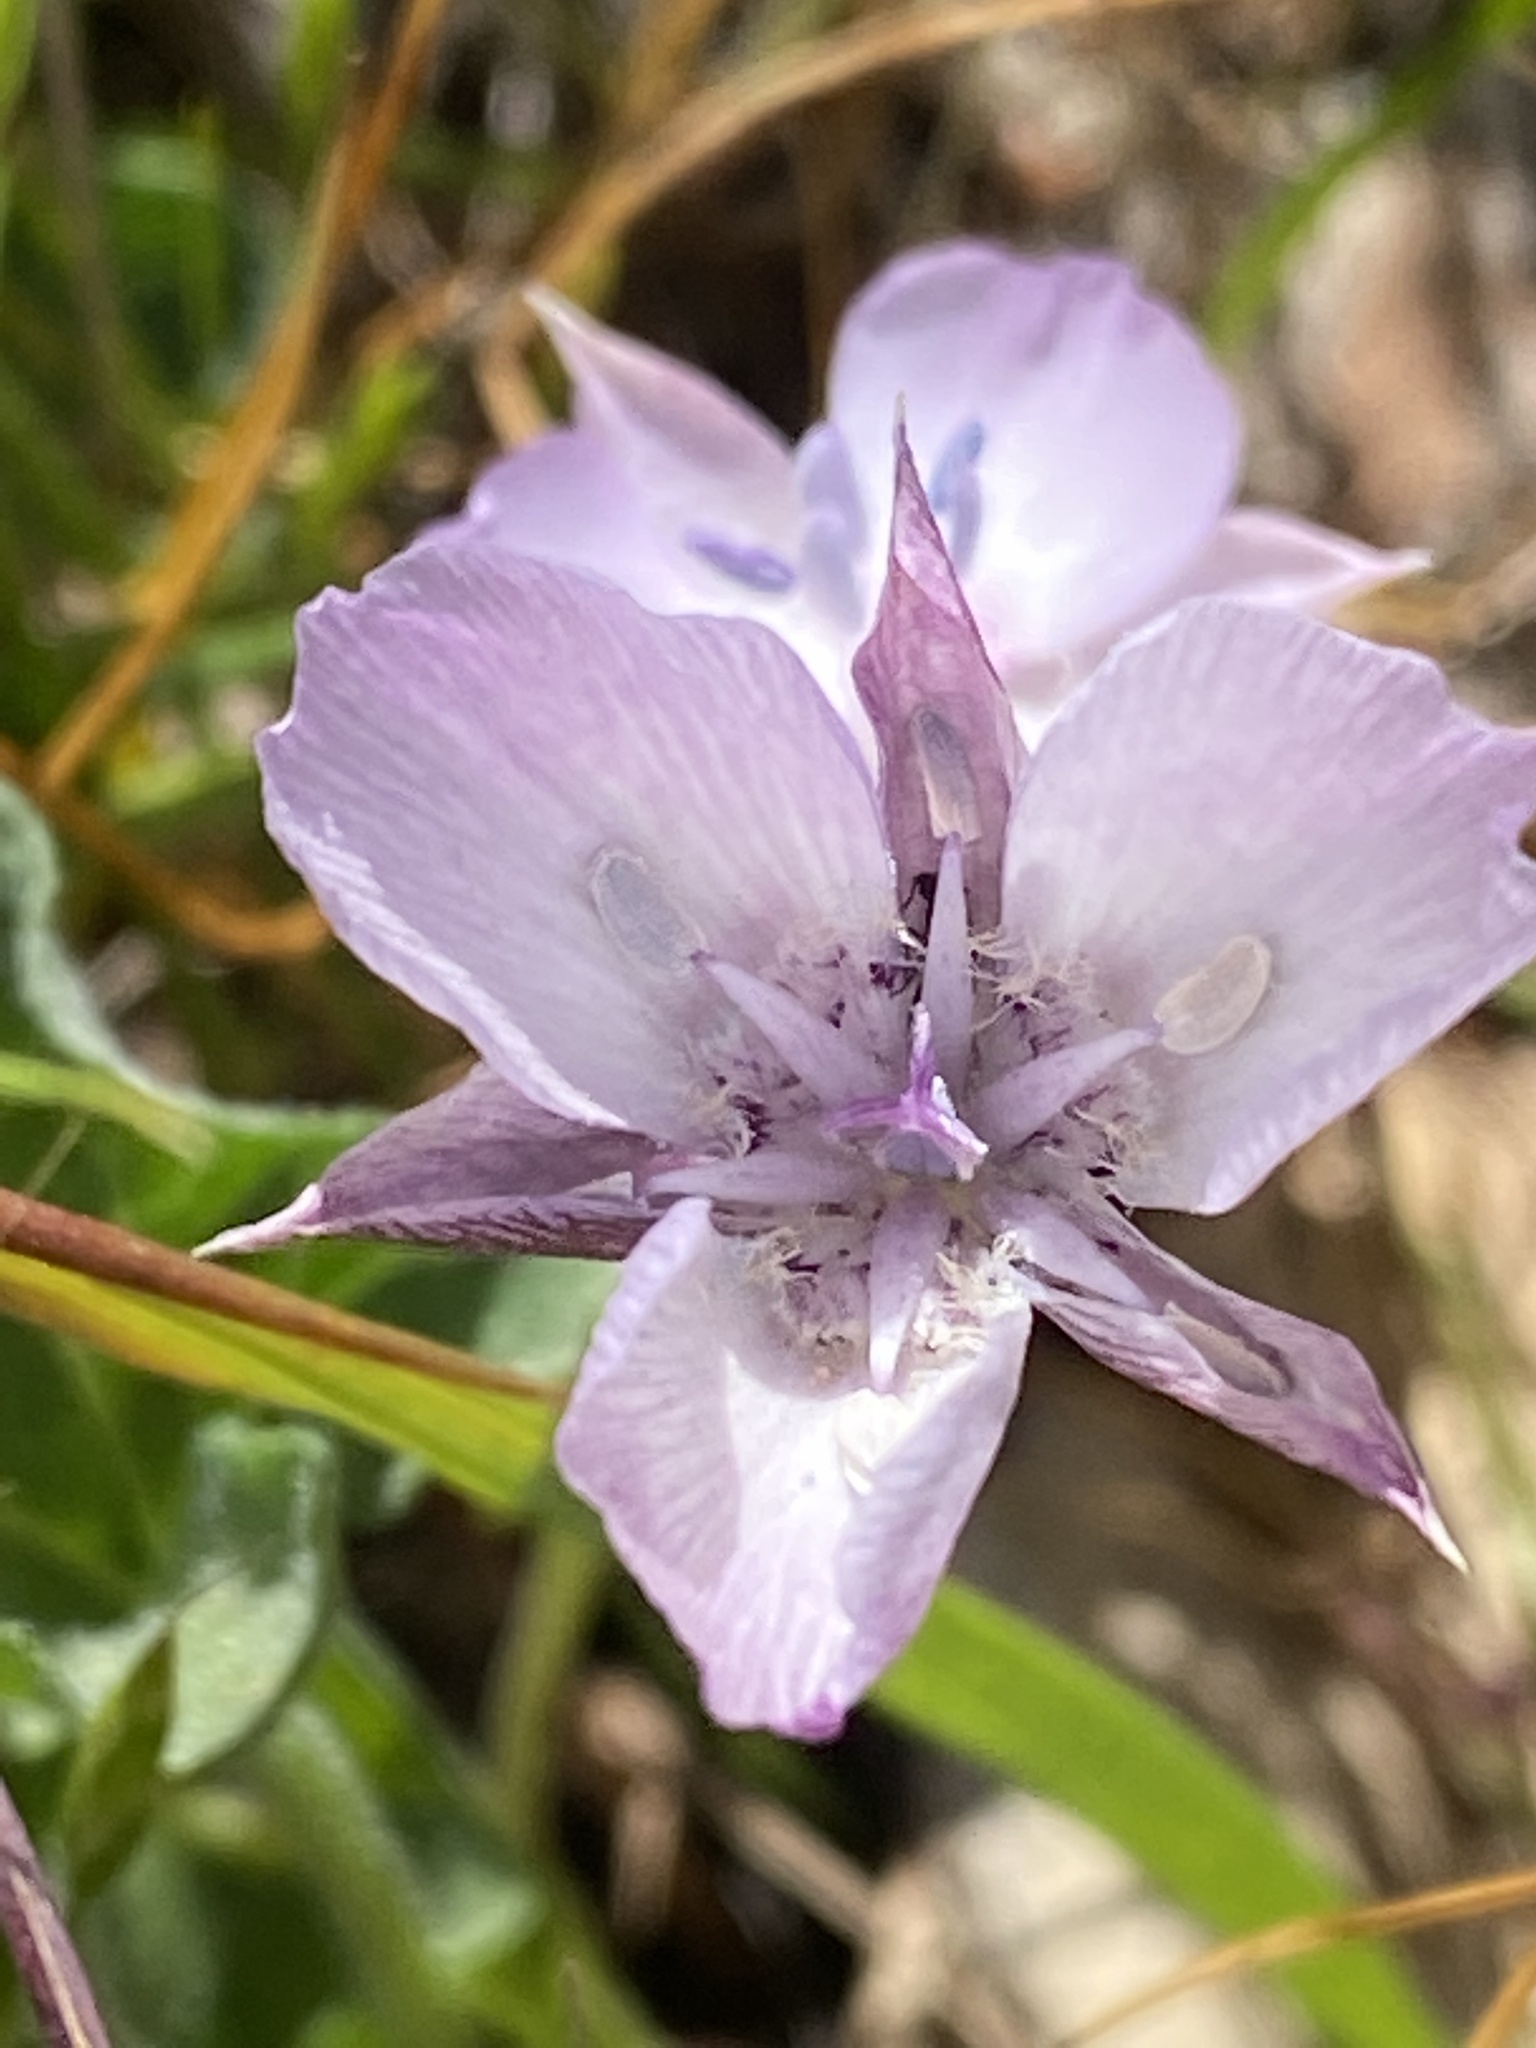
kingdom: Plantae
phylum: Tracheophyta
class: Liliopsida
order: Liliales
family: Liliaceae
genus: Calochortus
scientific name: Calochortus umbellatus
